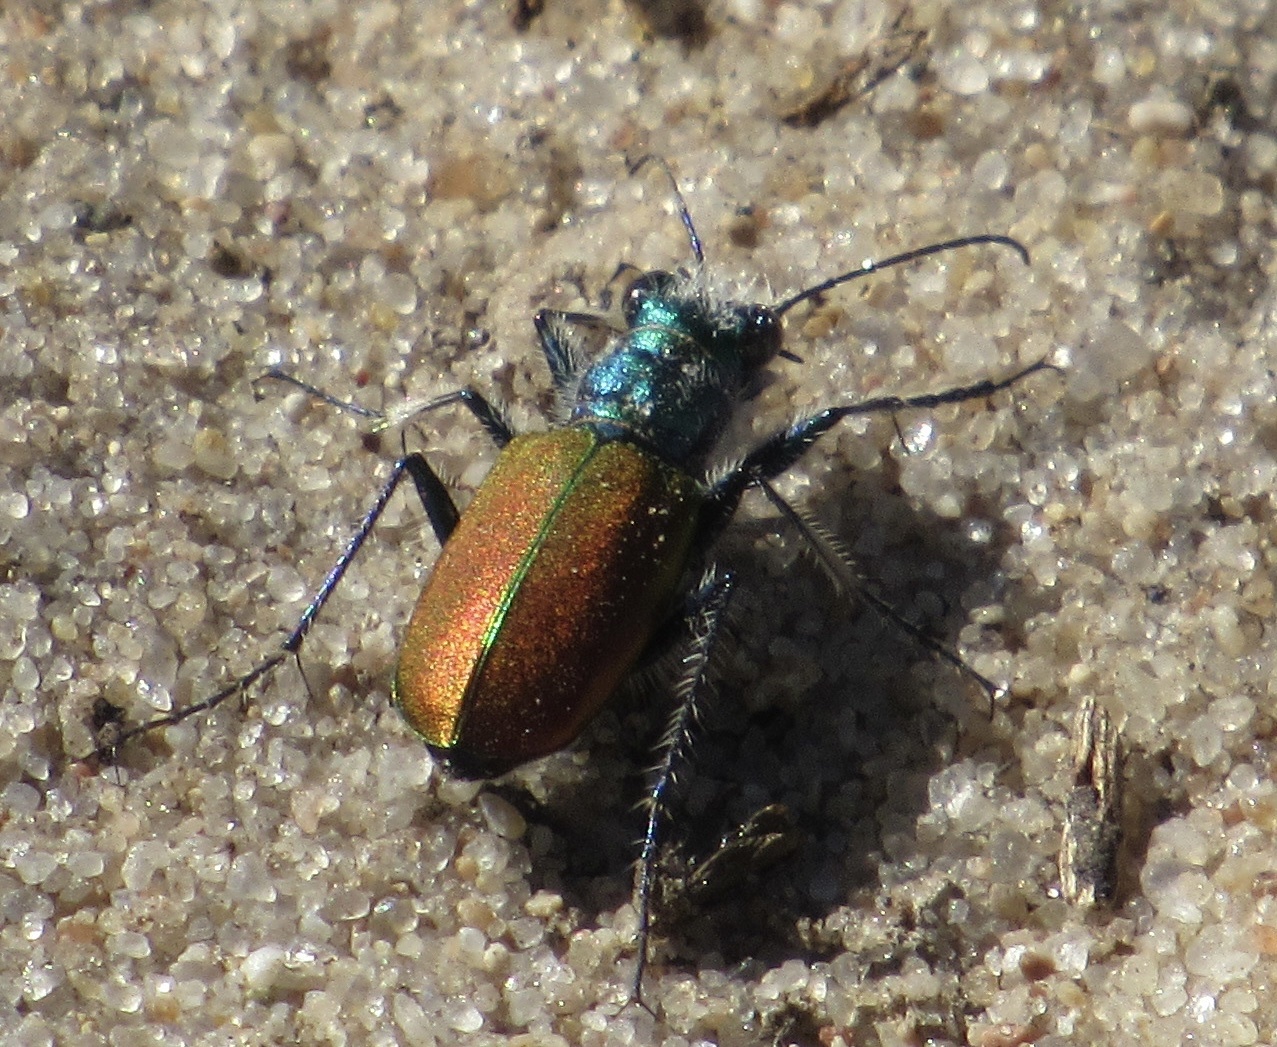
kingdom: Animalia
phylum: Arthropoda
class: Insecta
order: Coleoptera
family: Carabidae
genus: Cicindela
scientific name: Cicindela scutellaris
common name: Festive tiger beetle
